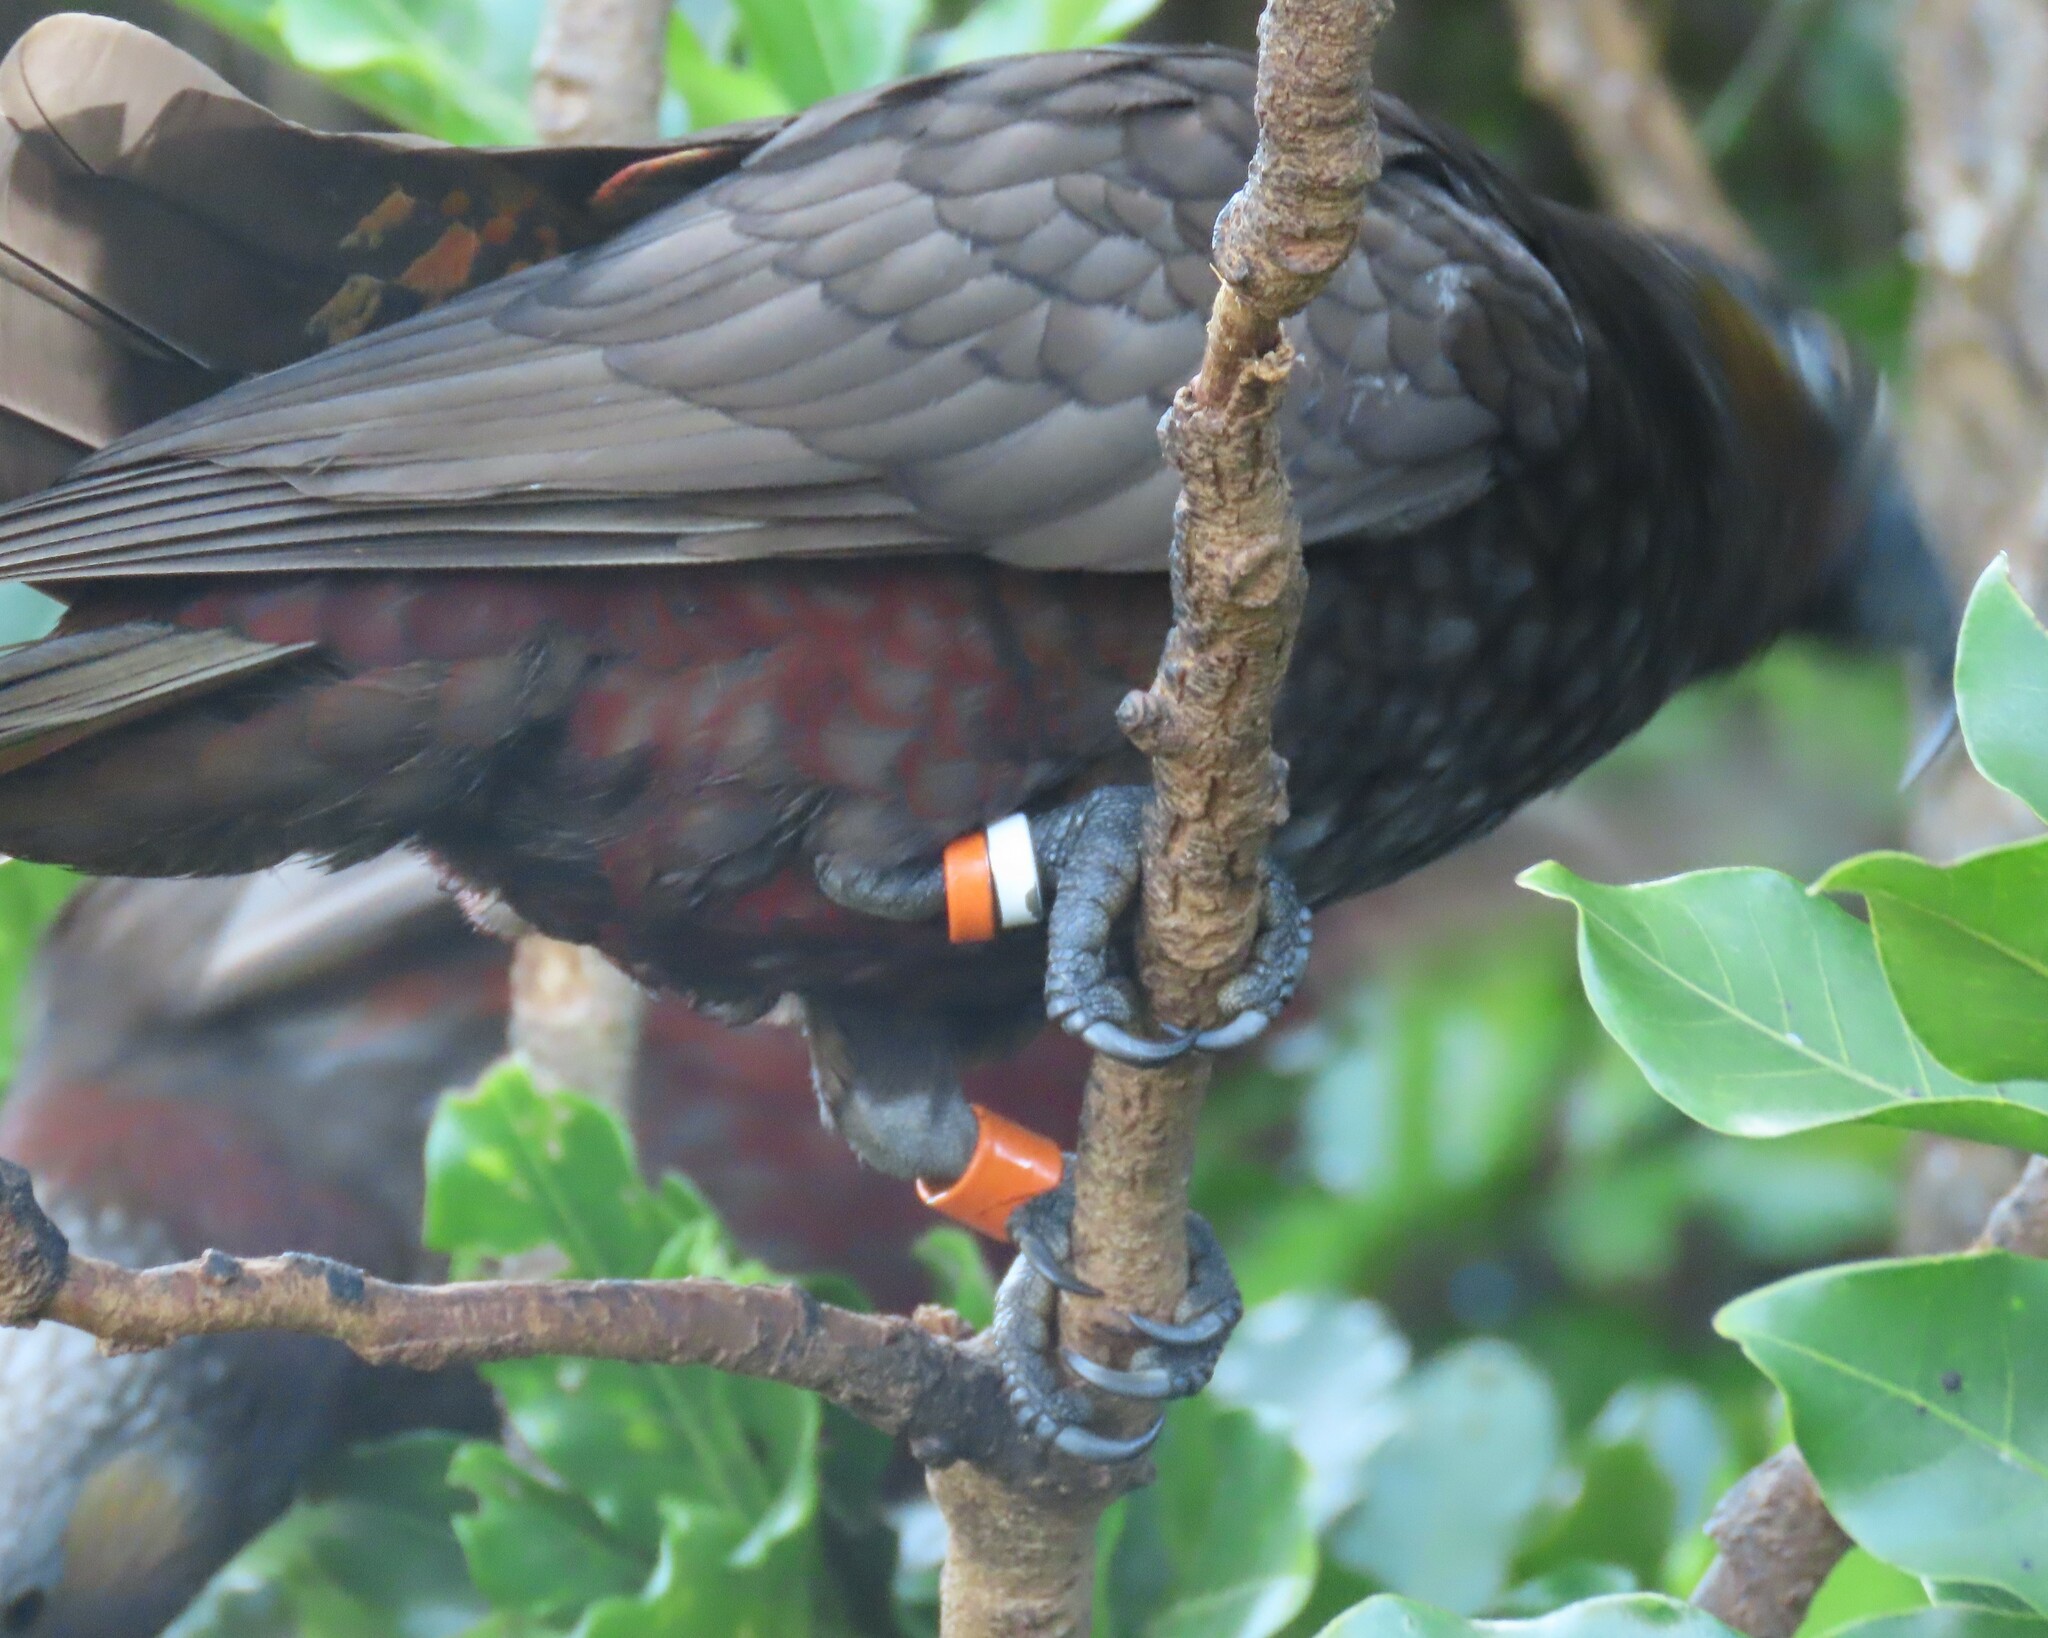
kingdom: Animalia
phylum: Chordata
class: Aves
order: Psittaciformes
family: Psittacidae
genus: Nestor
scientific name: Nestor meridionalis
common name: New zealand kaka
